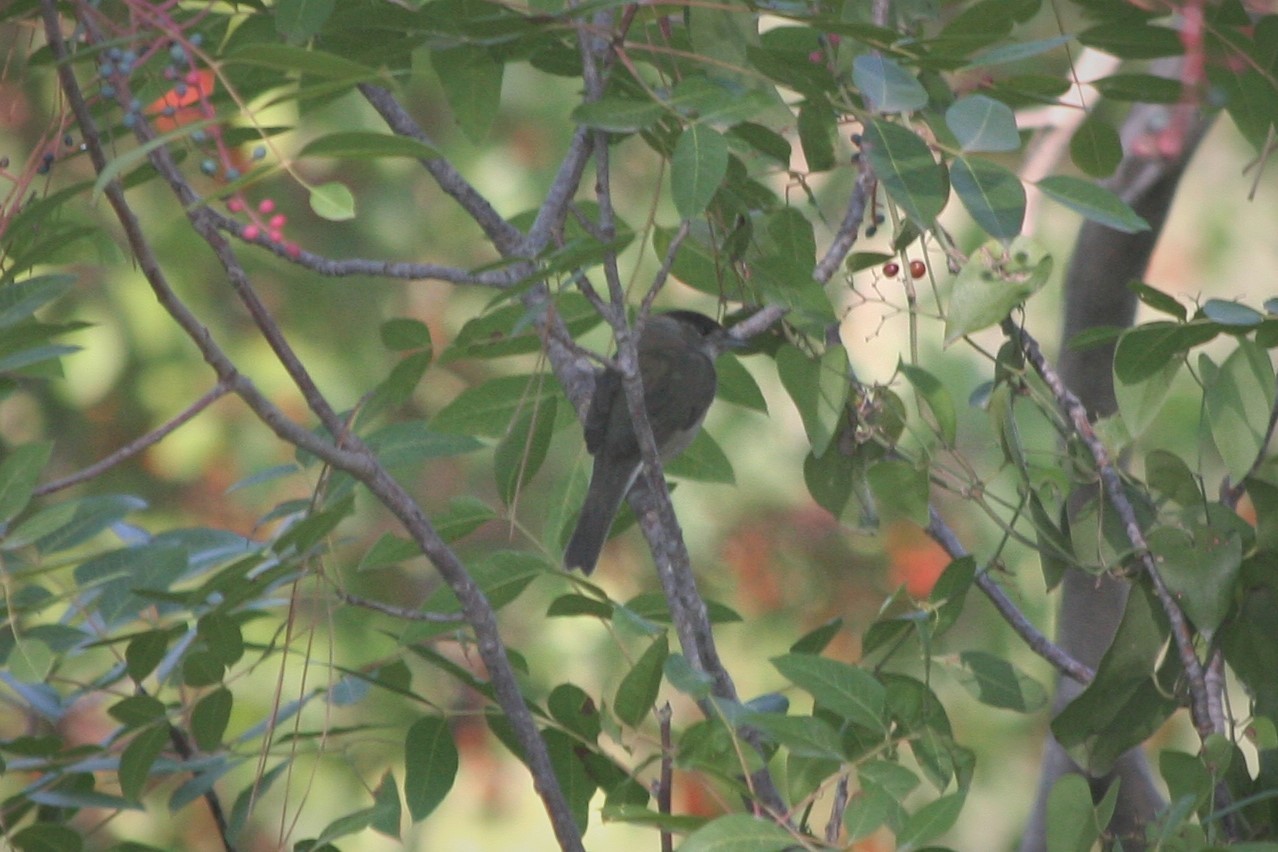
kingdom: Animalia
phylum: Chordata
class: Aves
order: Passeriformes
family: Sylviidae
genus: Sylvia
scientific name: Sylvia atricapilla
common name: Eurasian blackcap
